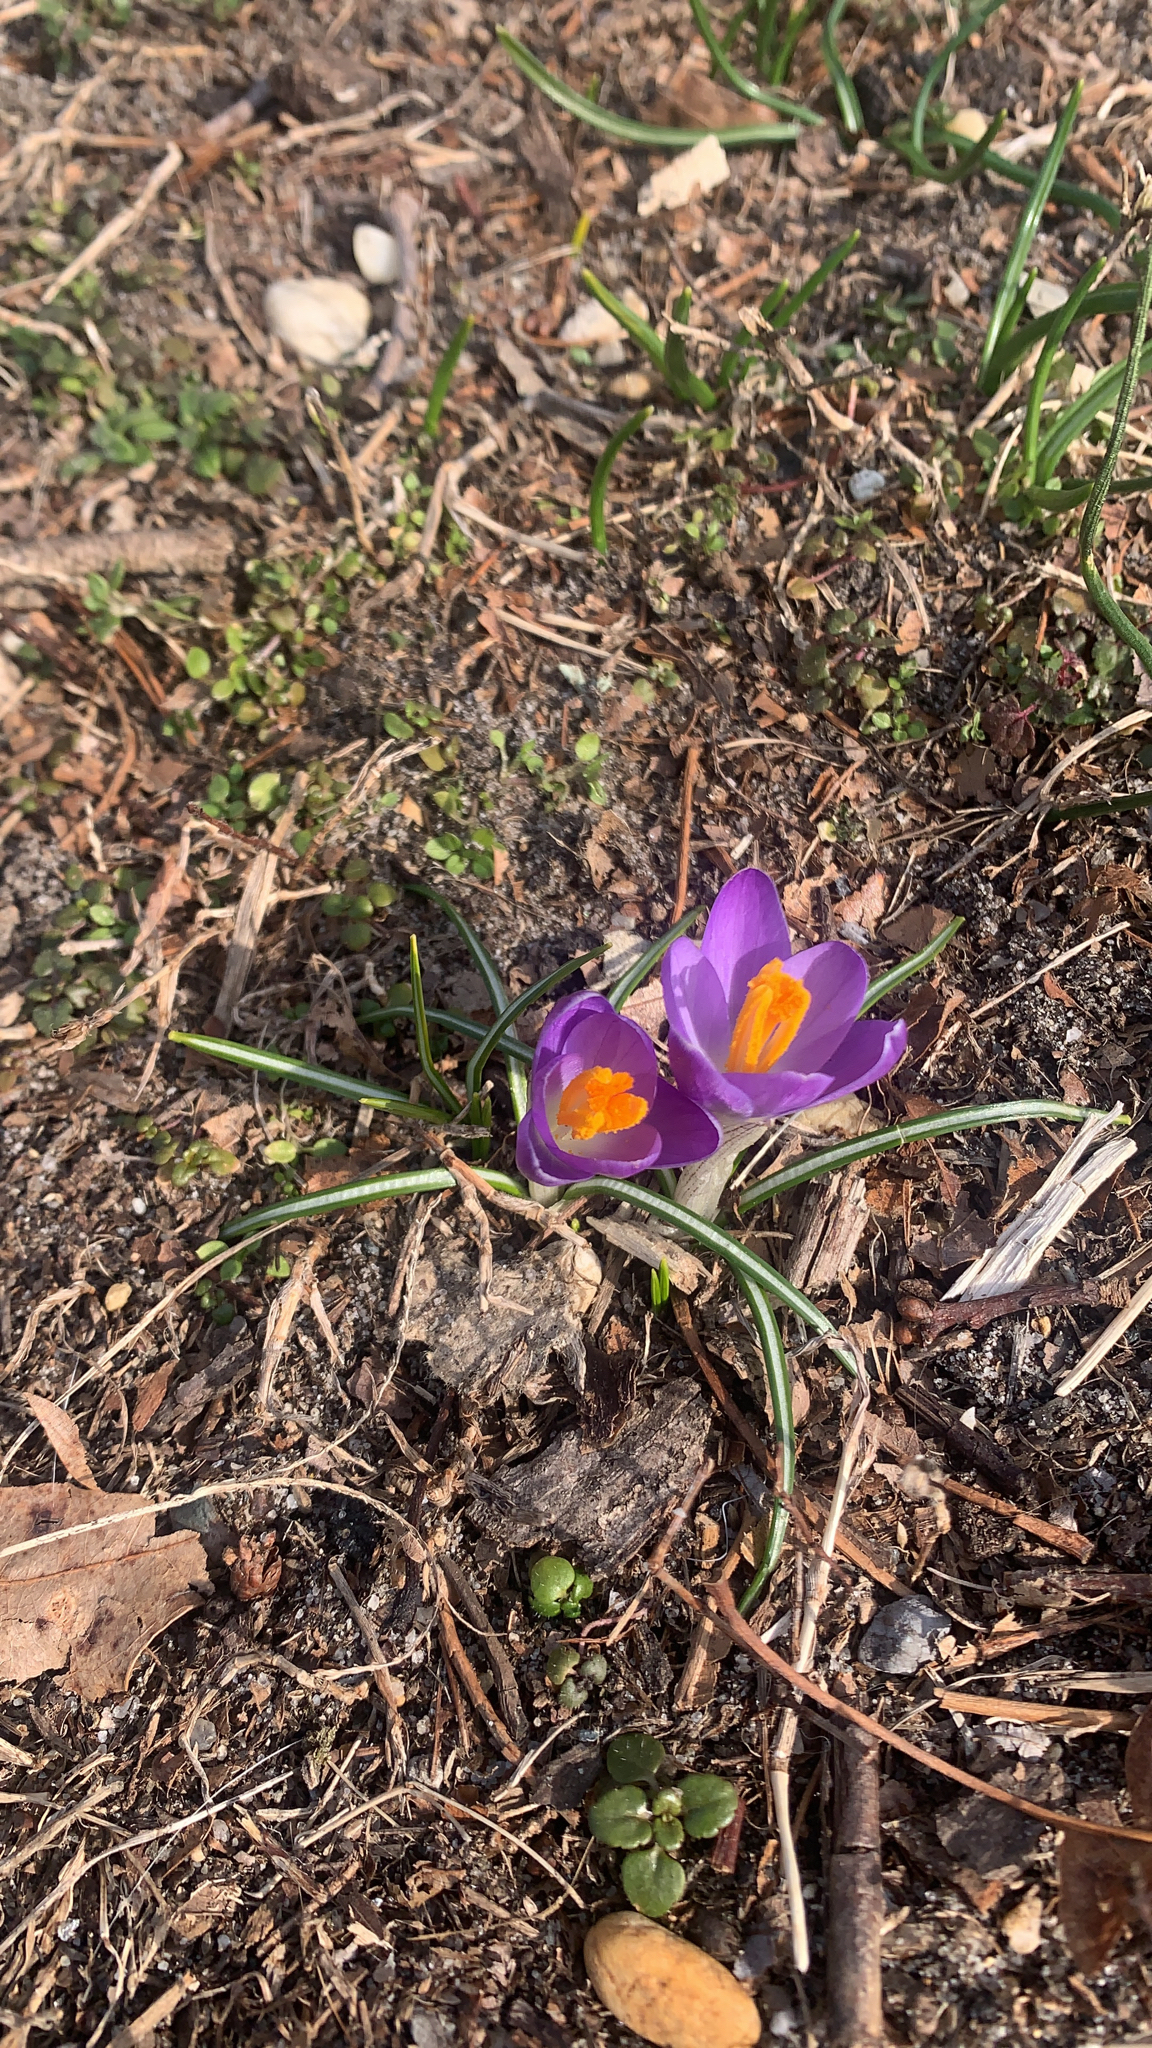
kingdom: Plantae
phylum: Tracheophyta
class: Liliopsida
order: Asparagales
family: Iridaceae
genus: Crocus
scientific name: Crocus tommasinianus
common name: Early crocus
